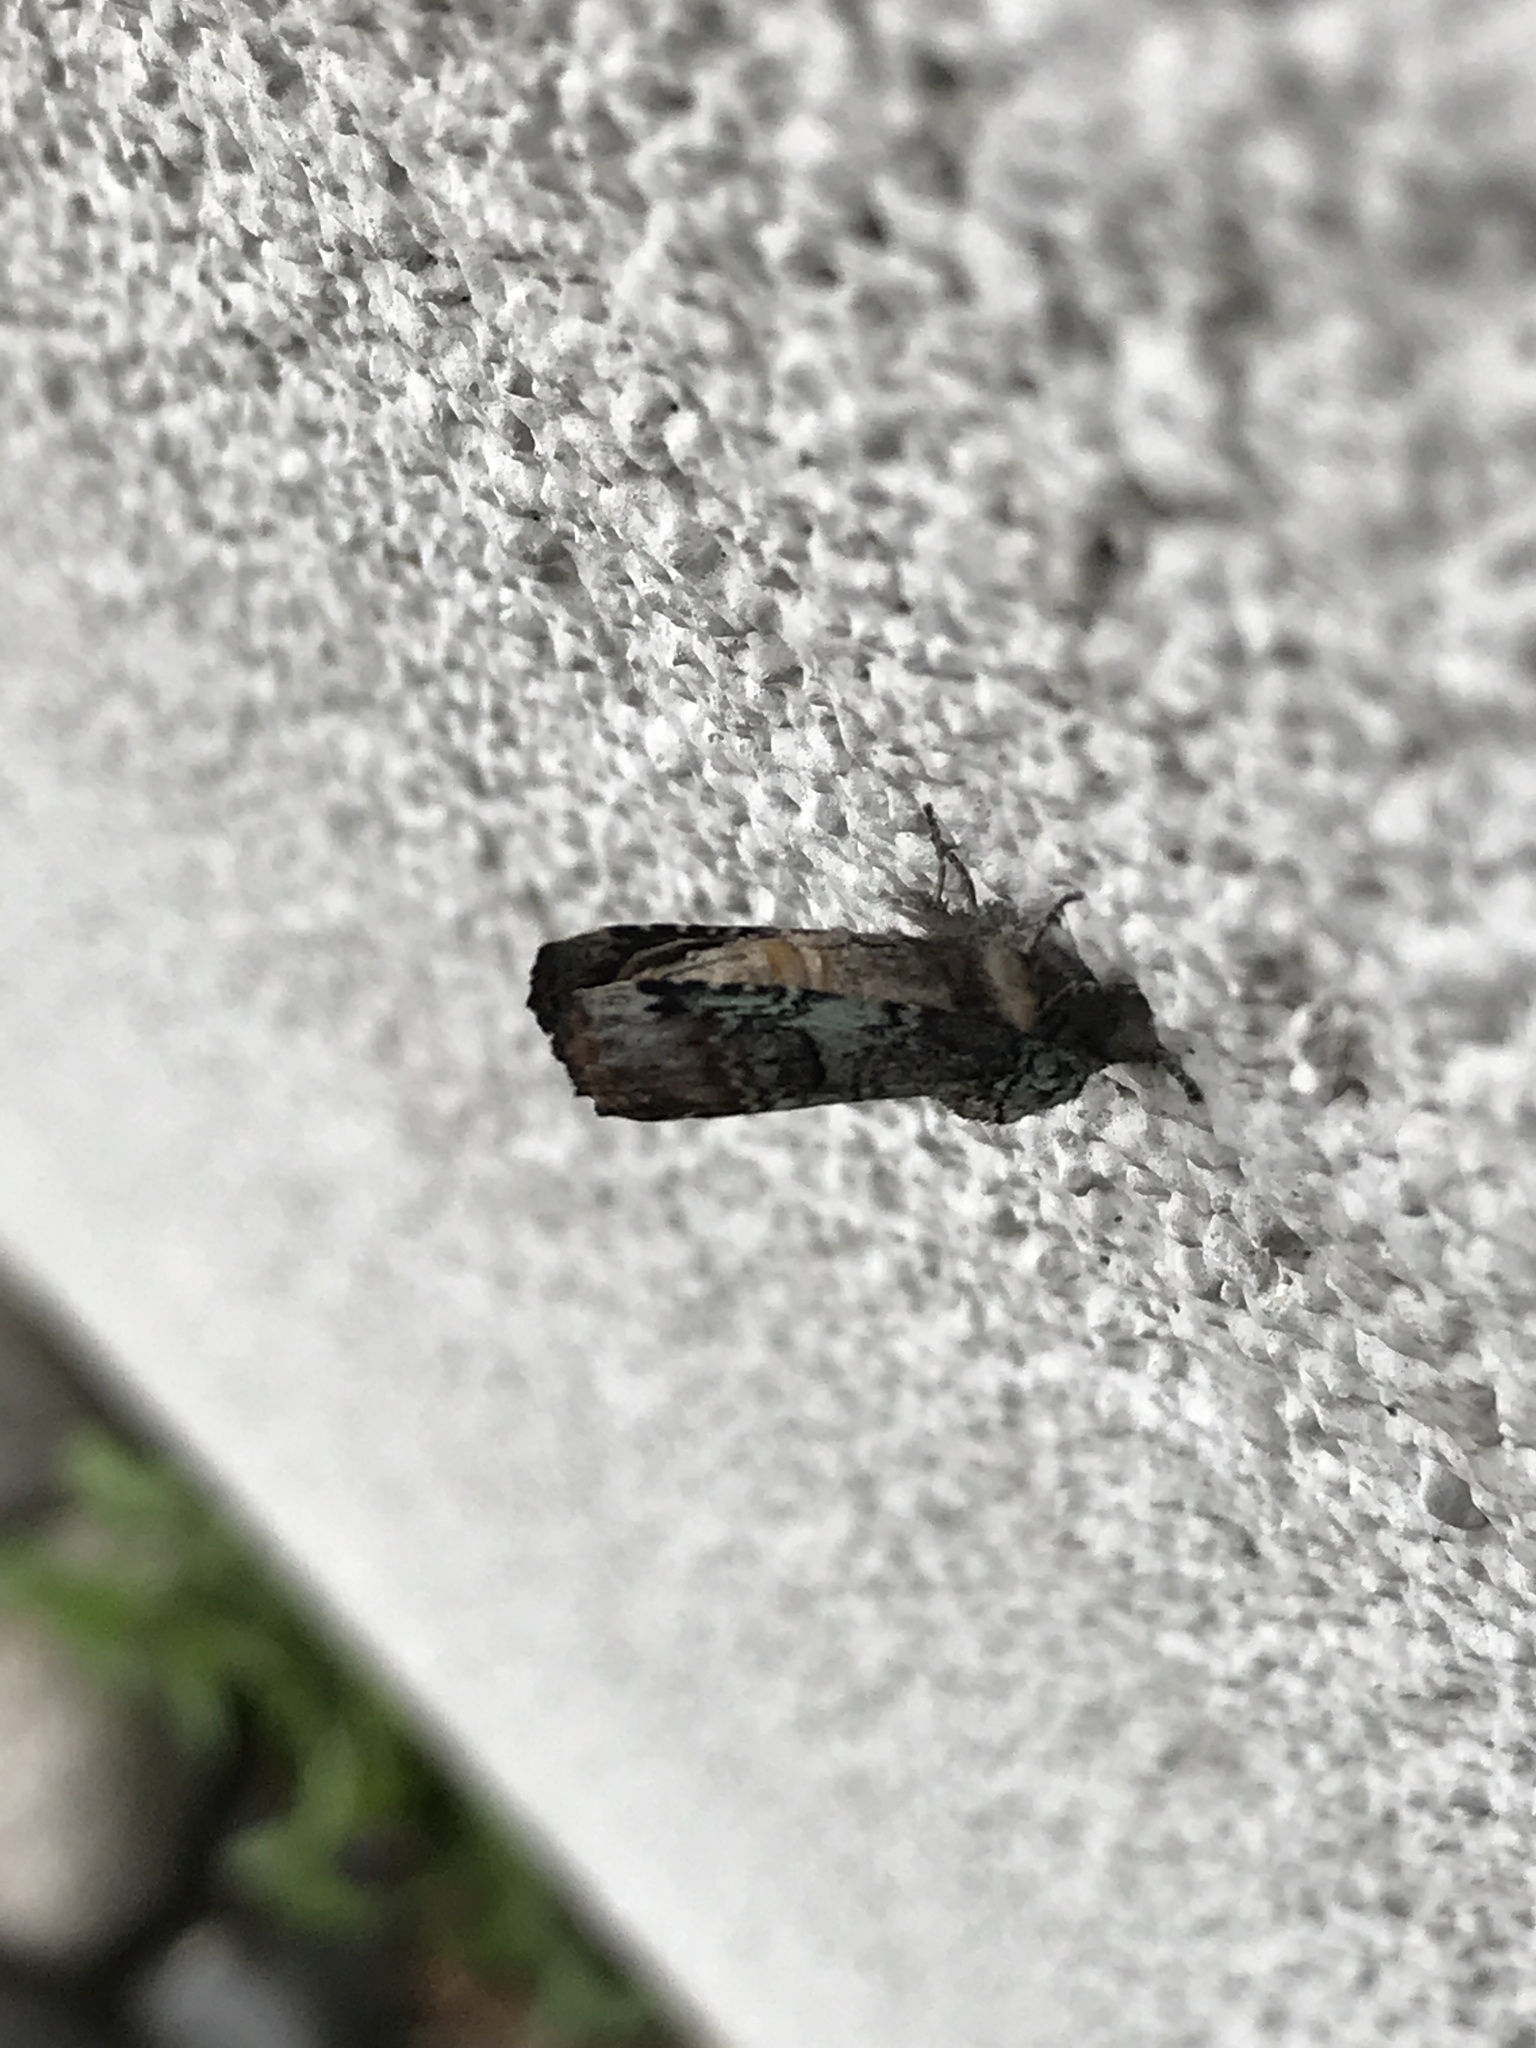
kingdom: Animalia
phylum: Arthropoda
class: Insecta
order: Lepidoptera
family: Notodontidae
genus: Schizura
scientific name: Schizura
